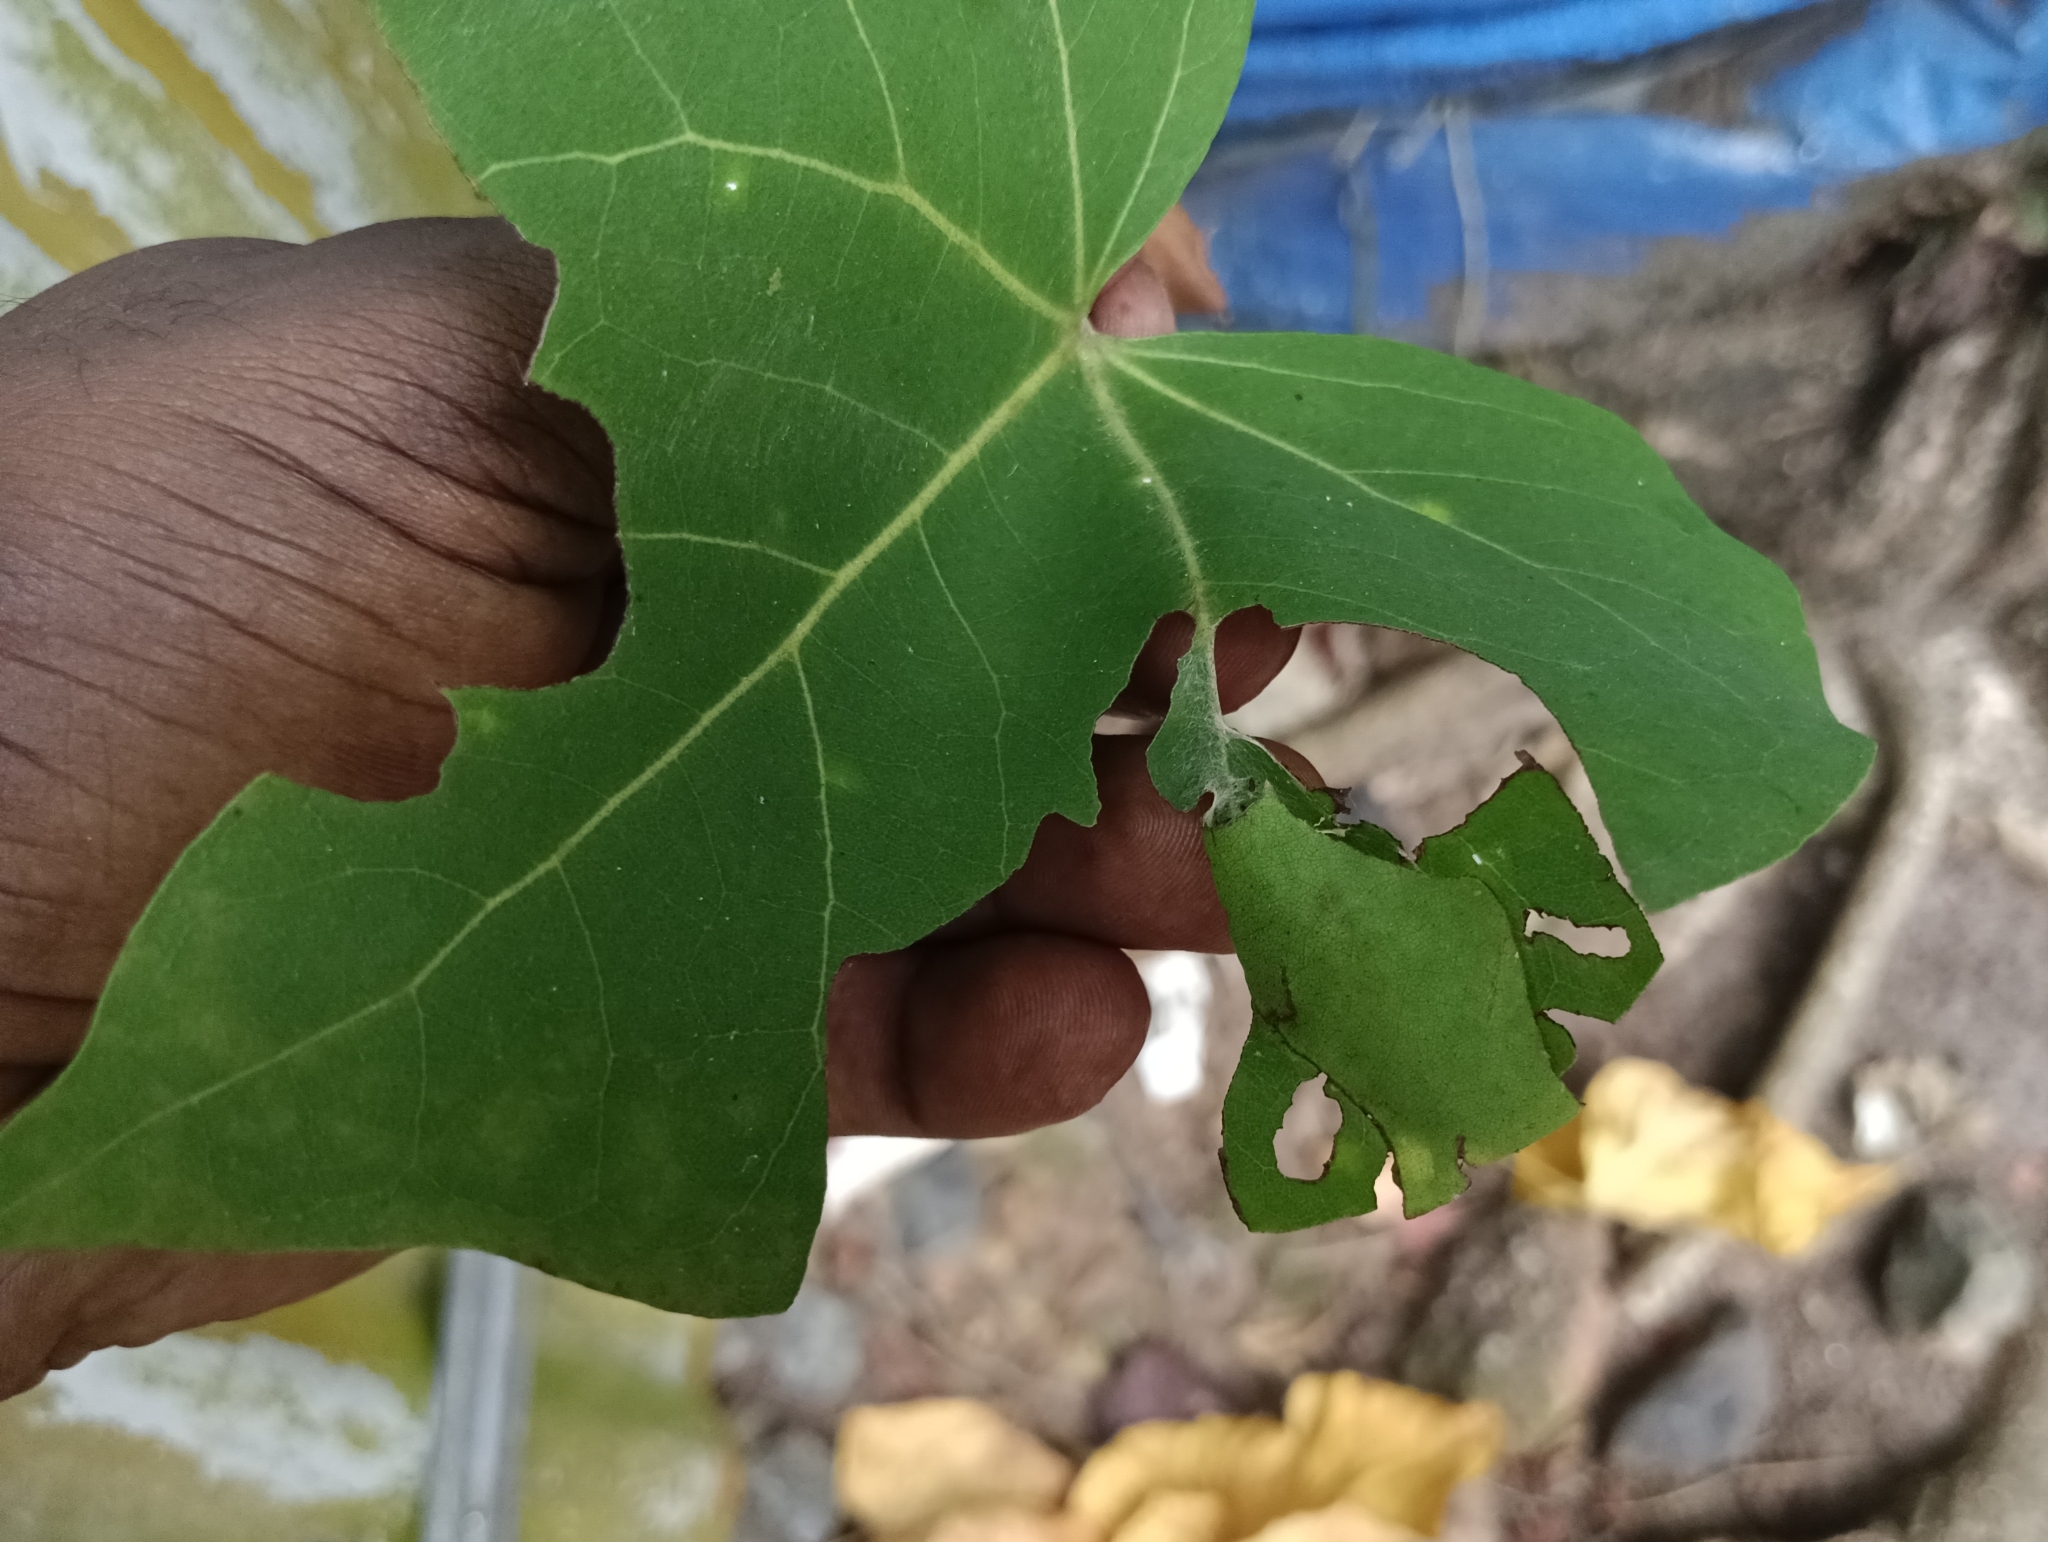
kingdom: Animalia
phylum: Arthropoda
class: Insecta
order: Lepidoptera
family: Hesperiidae
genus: Coladenia
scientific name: Coladenia
